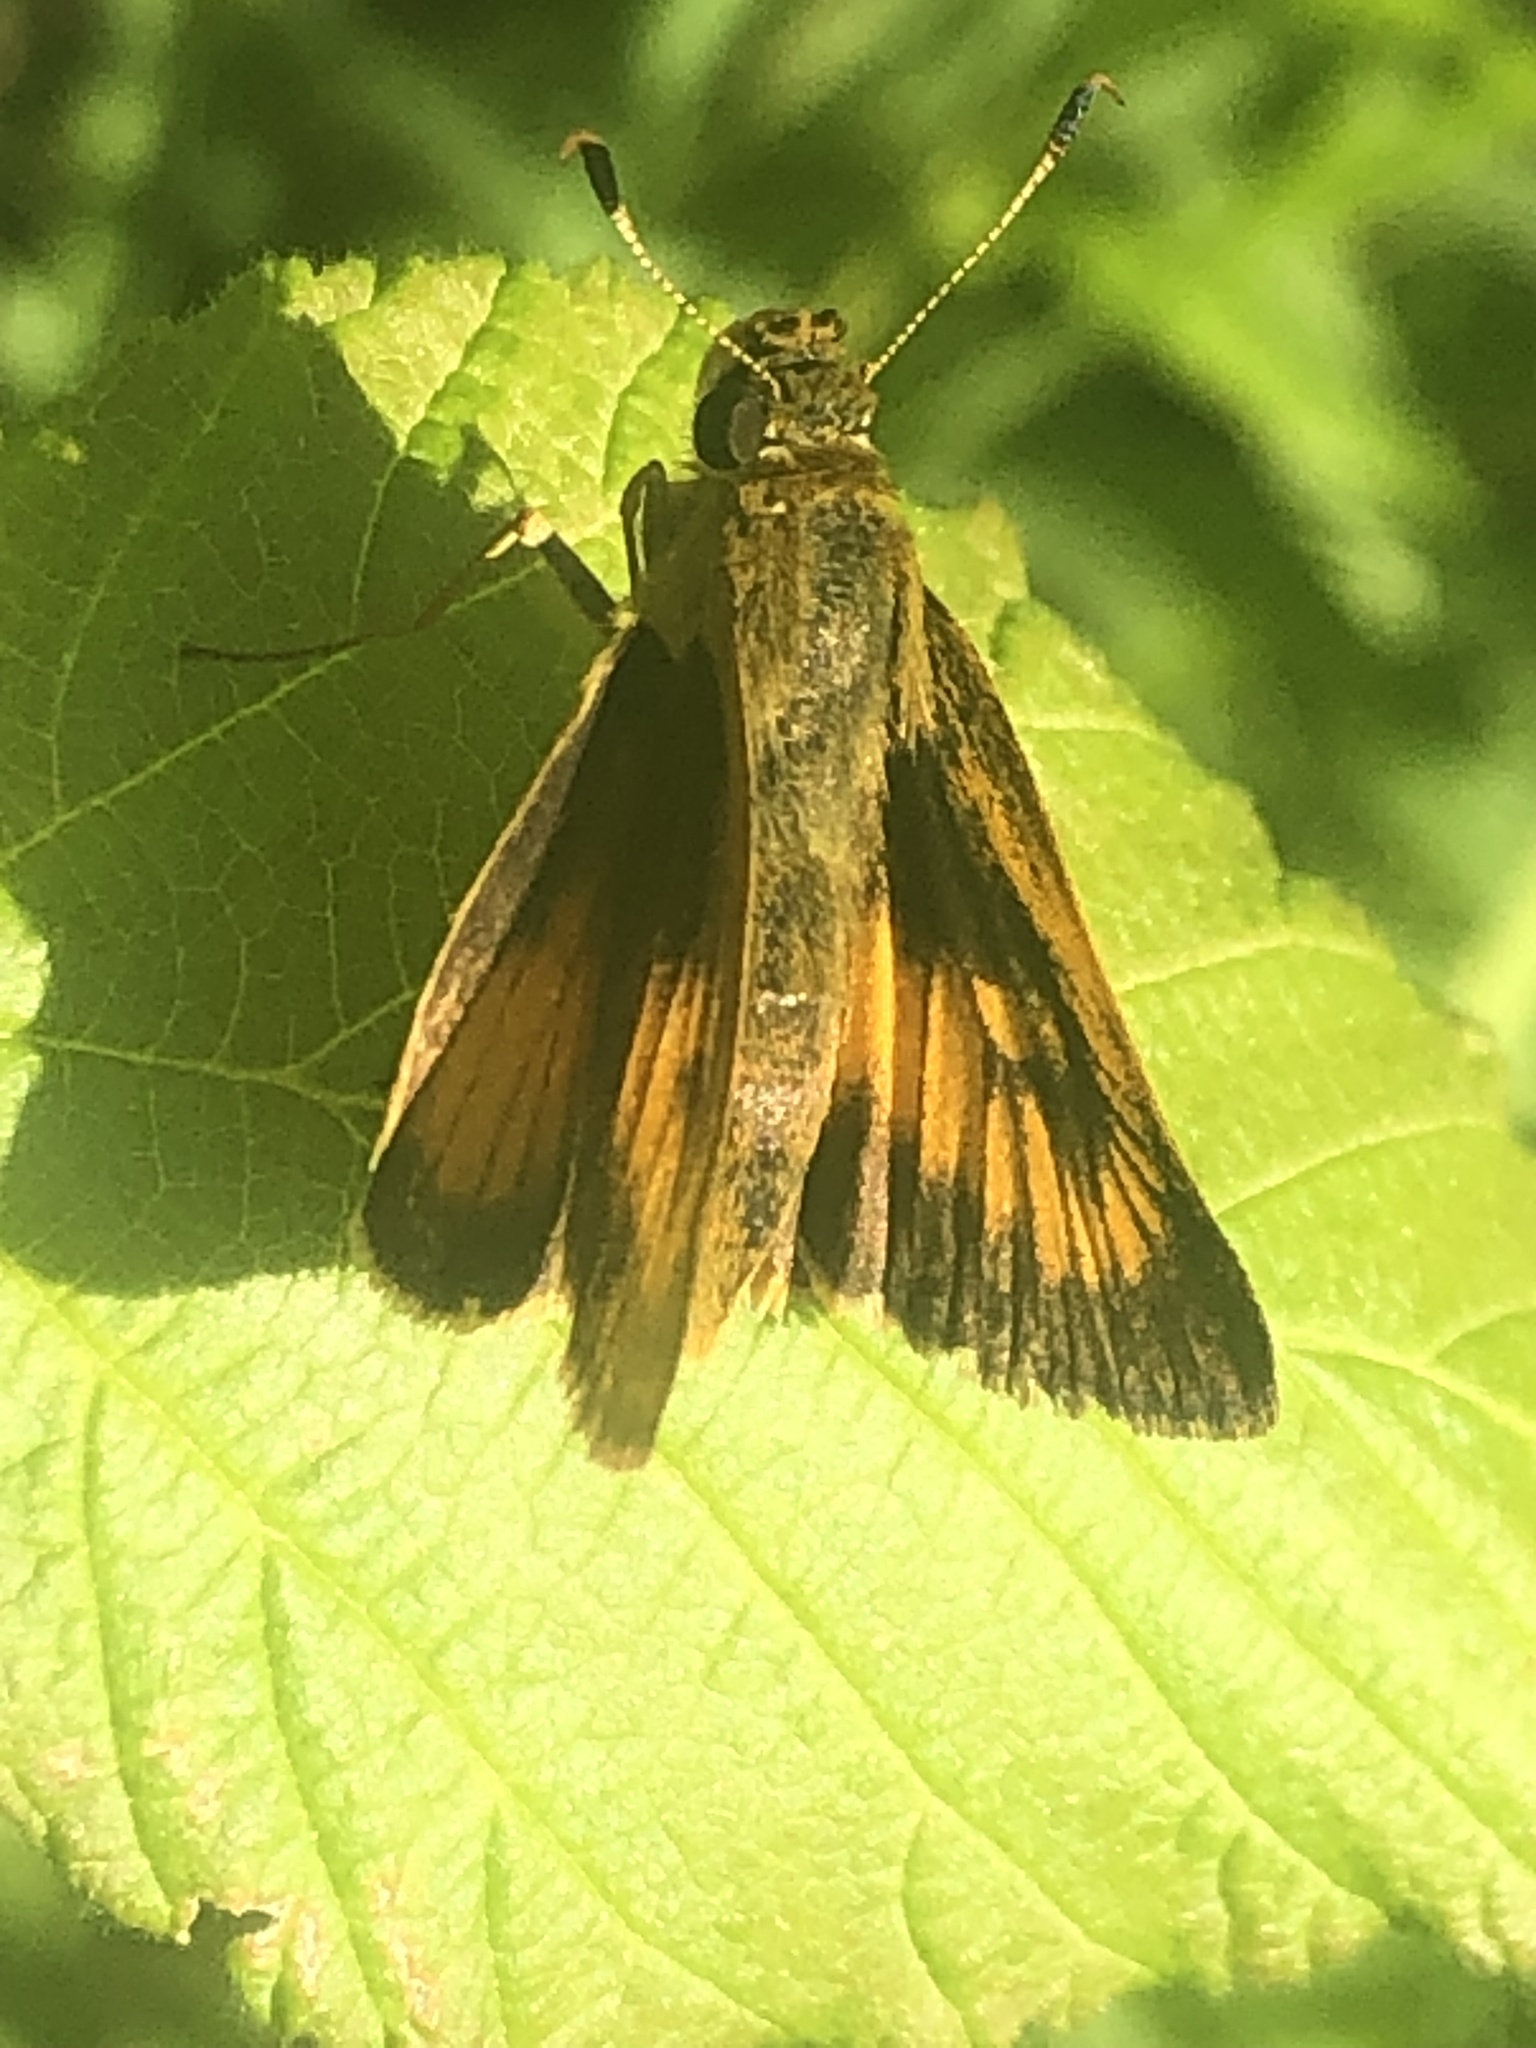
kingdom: Animalia
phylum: Arthropoda
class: Insecta
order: Lepidoptera
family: Hesperiidae
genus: Atrytone
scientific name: Atrytone delaware
